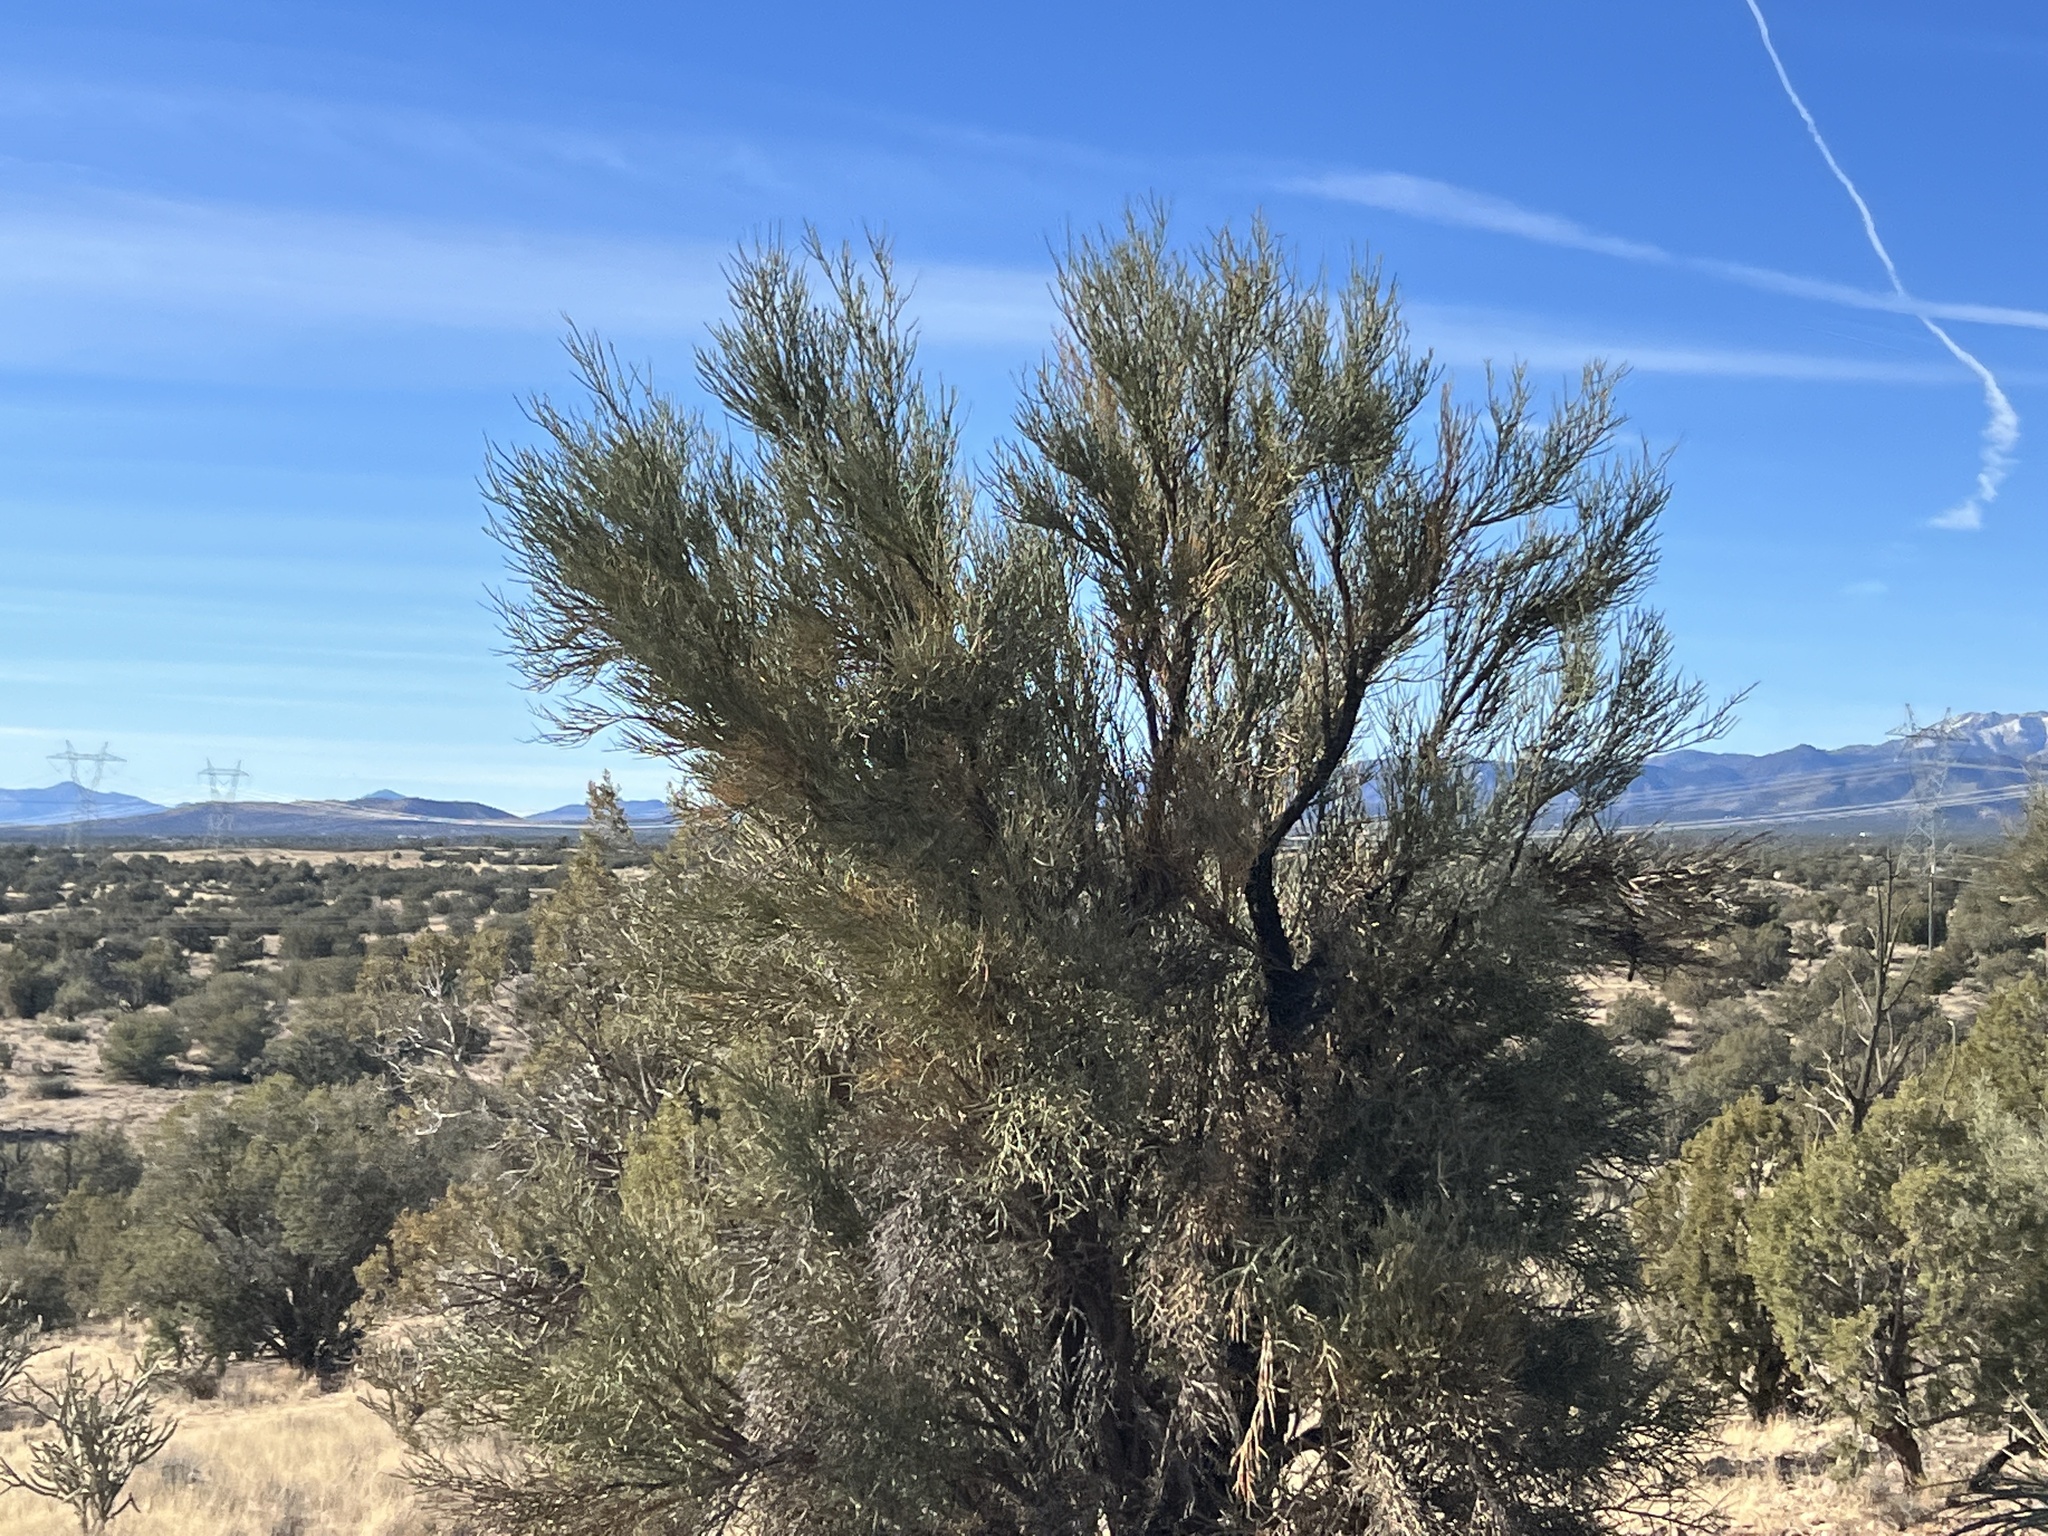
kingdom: Plantae
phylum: Tracheophyta
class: Magnoliopsida
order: Celastrales
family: Celastraceae
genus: Canotia
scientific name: Canotia holacantha
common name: Crucifixion thorns
